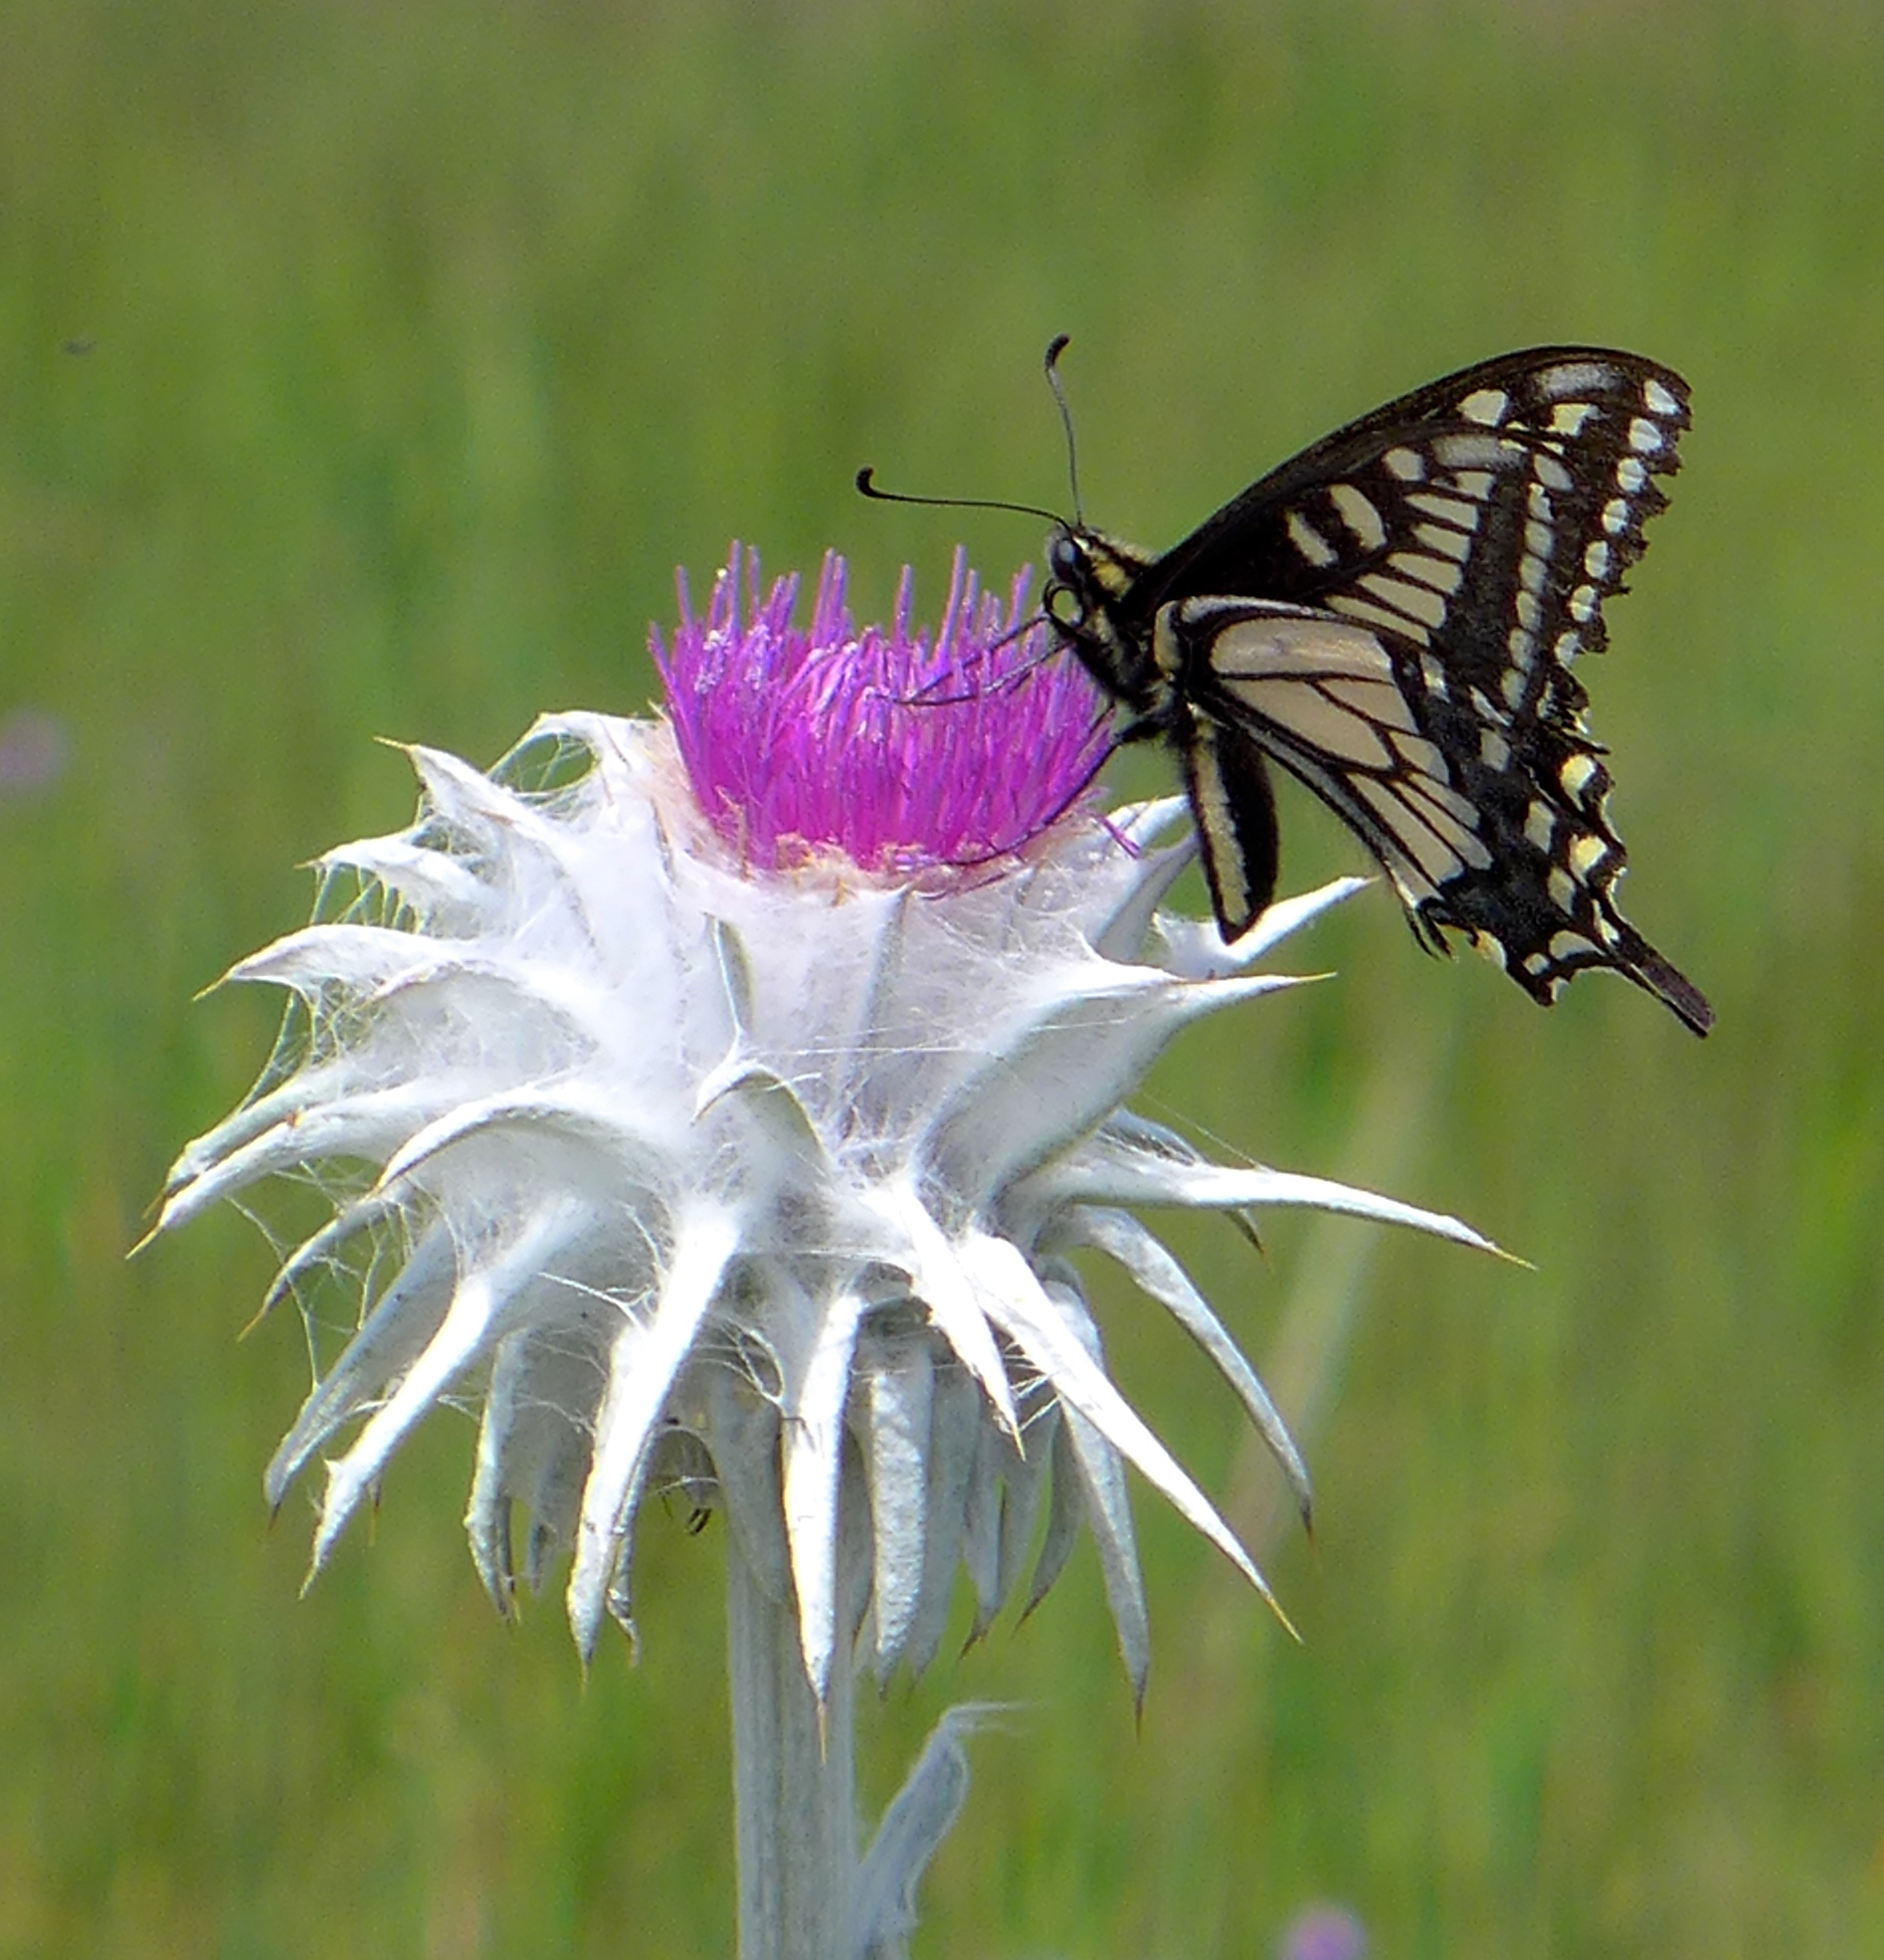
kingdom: Animalia
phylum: Arthropoda
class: Insecta
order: Lepidoptera
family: Papilionidae
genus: Papilio
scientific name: Papilio zelicaon
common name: Anise swallowtail
